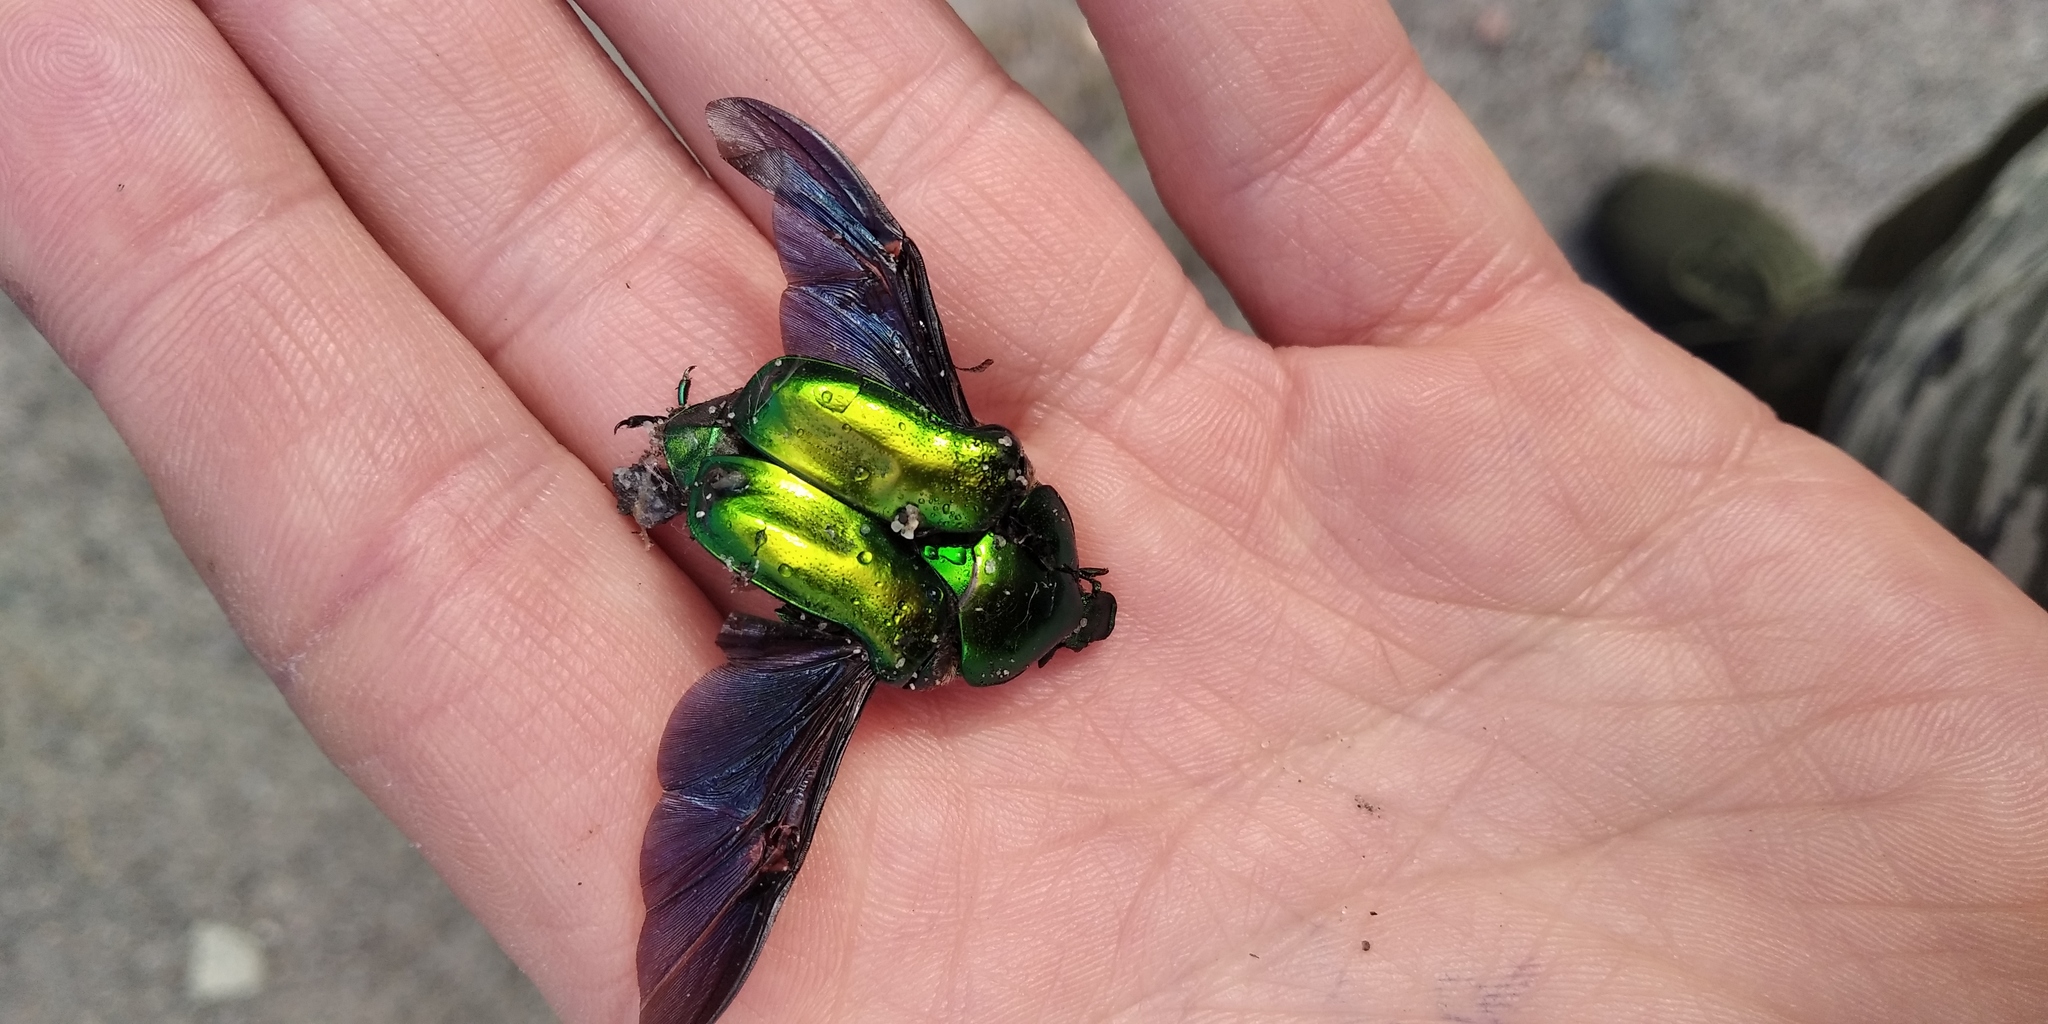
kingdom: Animalia
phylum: Arthropoda
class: Insecta
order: Coleoptera
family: Scarabaeidae
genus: Protaetia
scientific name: Protaetia affinis
